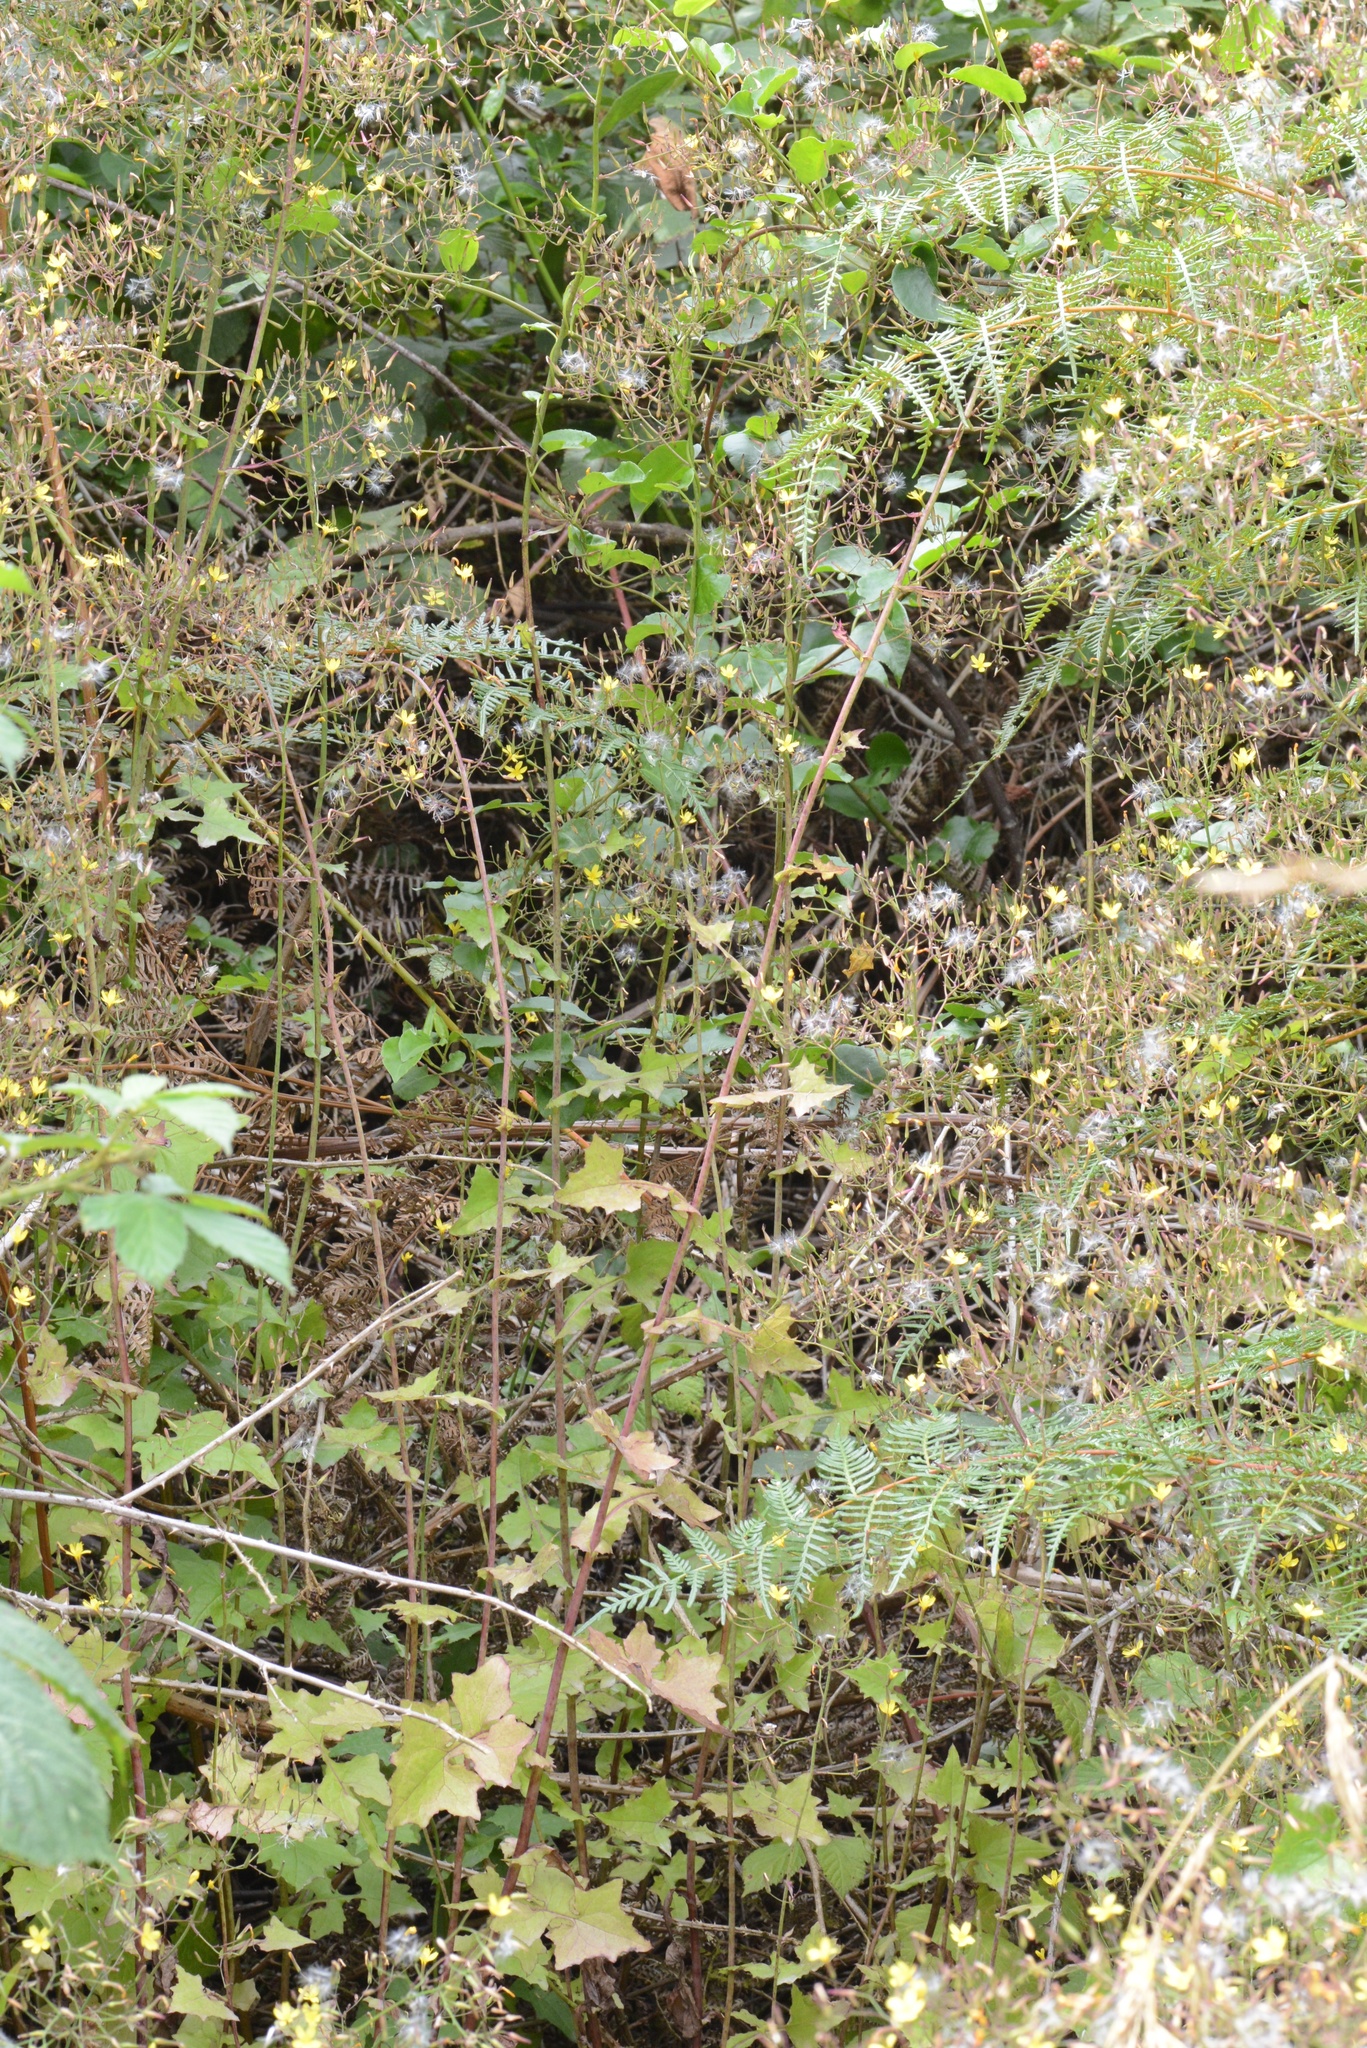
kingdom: Plantae
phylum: Tracheophyta
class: Magnoliopsida
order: Asterales
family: Asteraceae
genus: Mycelis
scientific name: Mycelis muralis
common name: Wall lettuce
